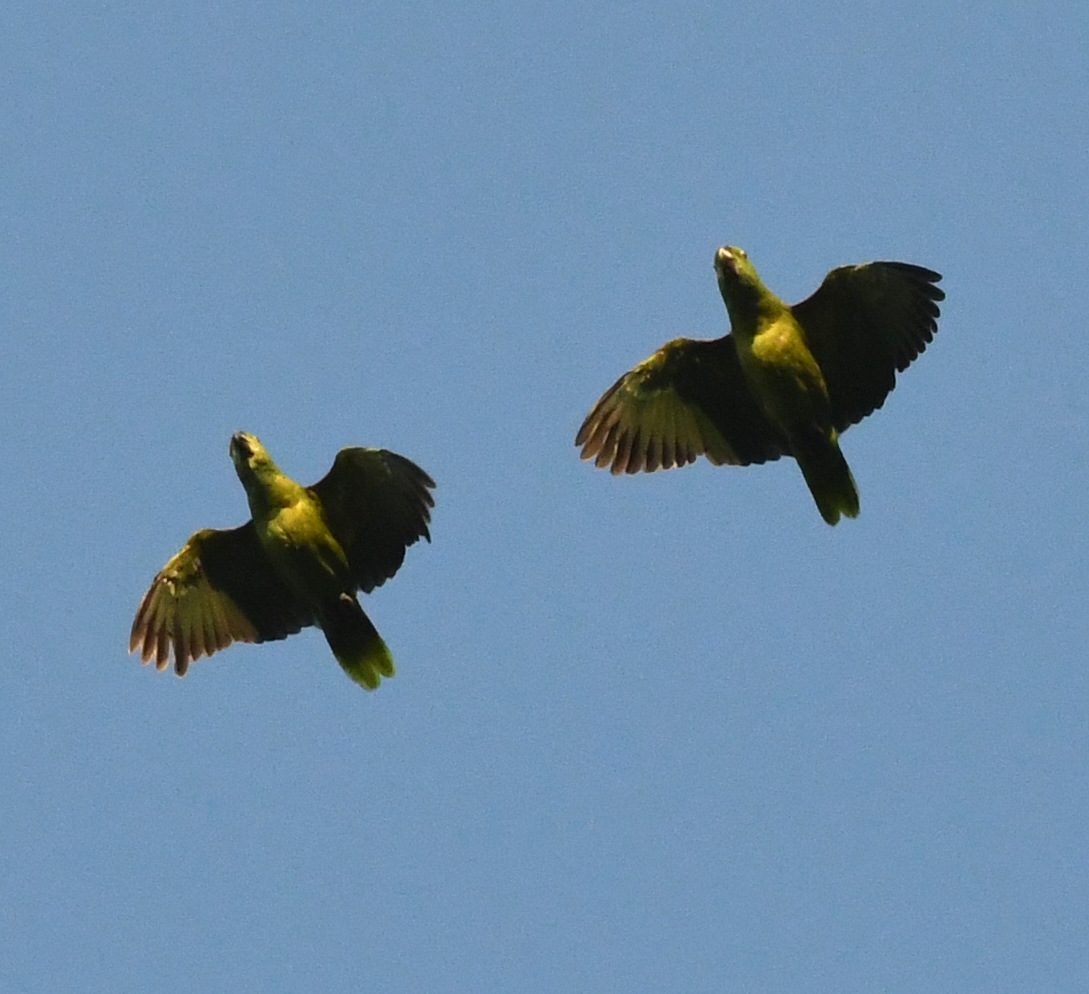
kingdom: Animalia
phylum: Chordata
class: Aves
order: Psittaciformes
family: Psittacidae
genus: Amazona
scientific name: Amazona auropalliata
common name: Yellow-naped amazon
